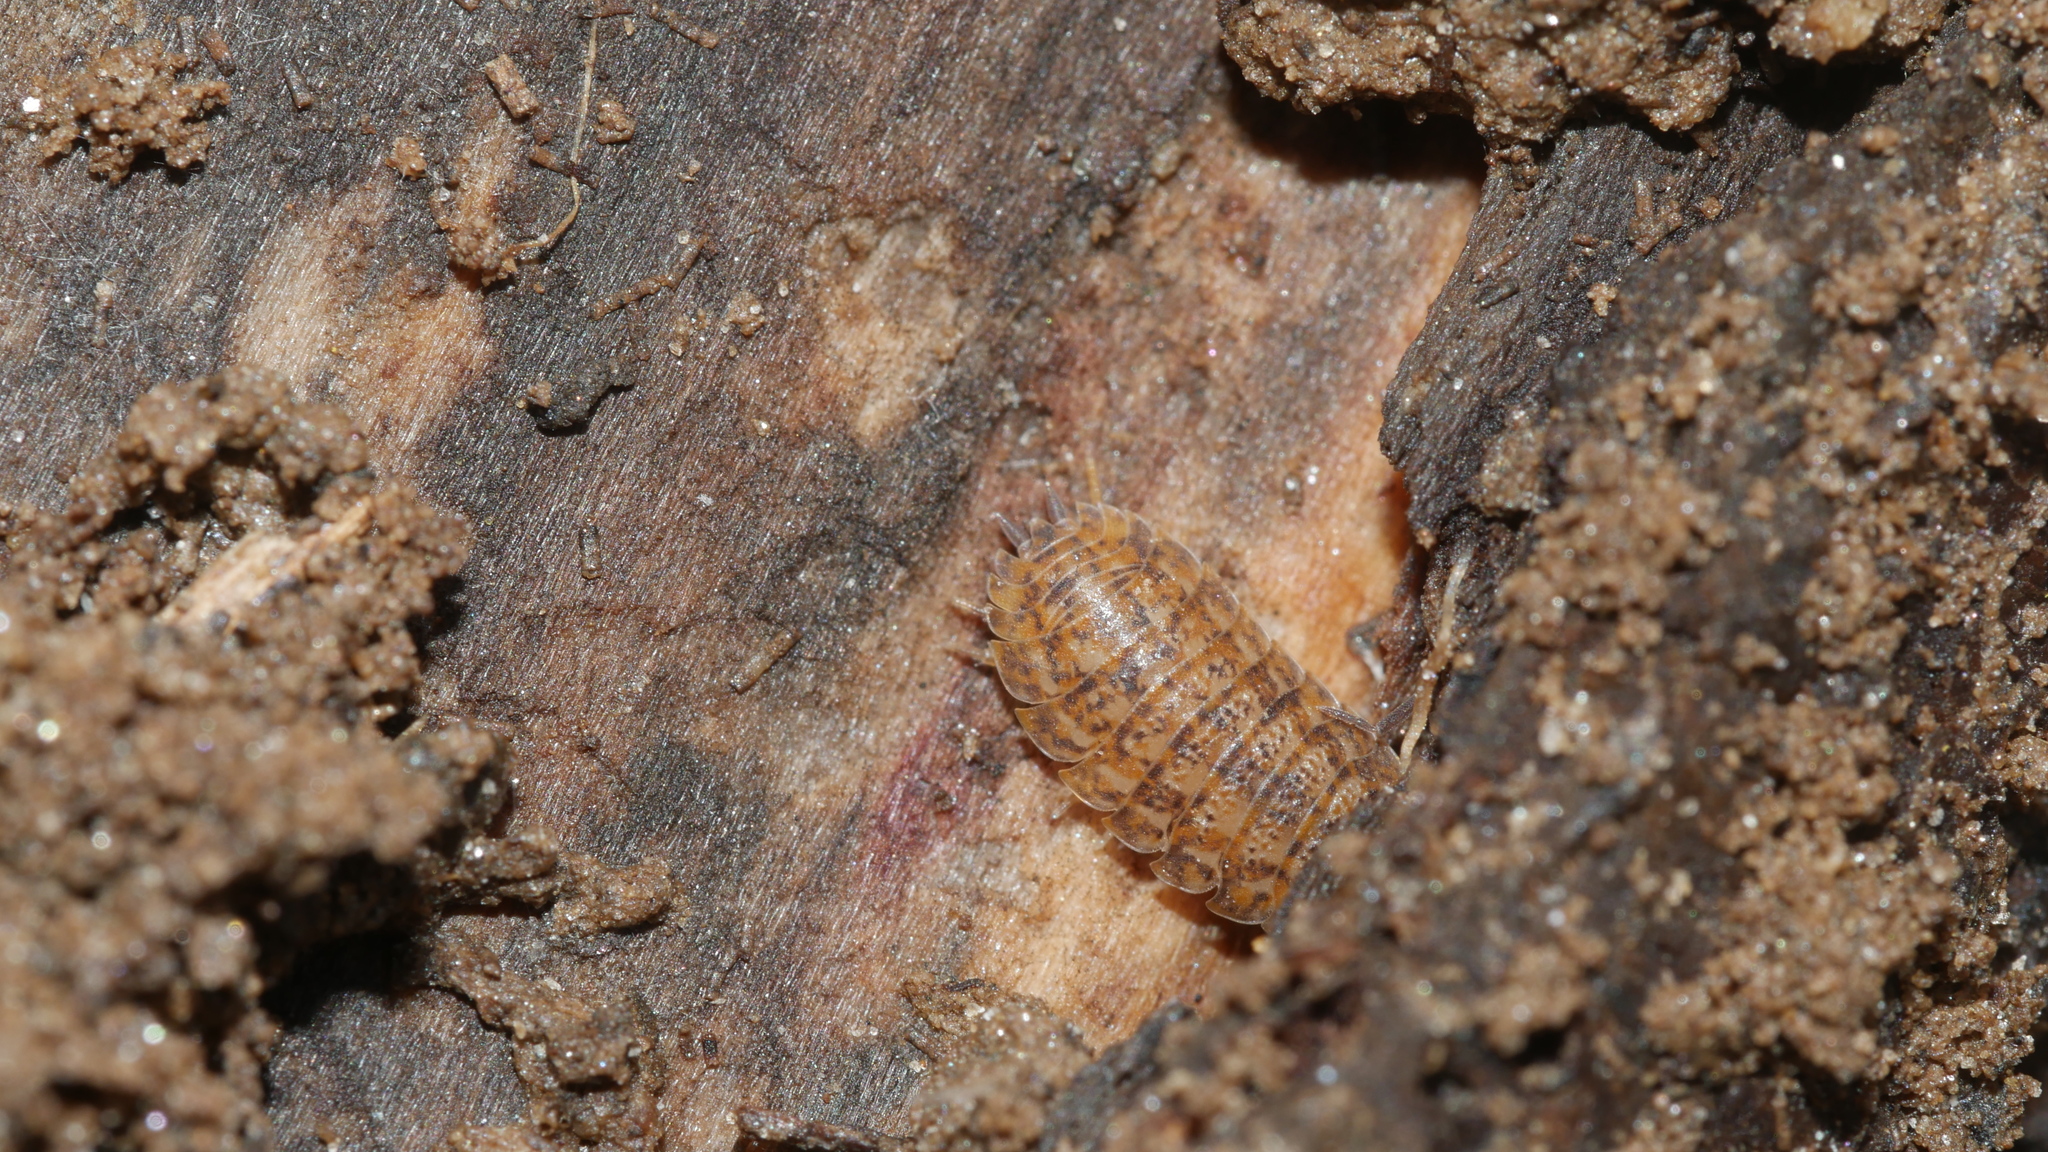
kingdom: Animalia
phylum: Arthropoda
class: Malacostraca
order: Isopoda
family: Trachelipodidae
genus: Trachelipus
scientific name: Trachelipus rathkii
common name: Isopod
